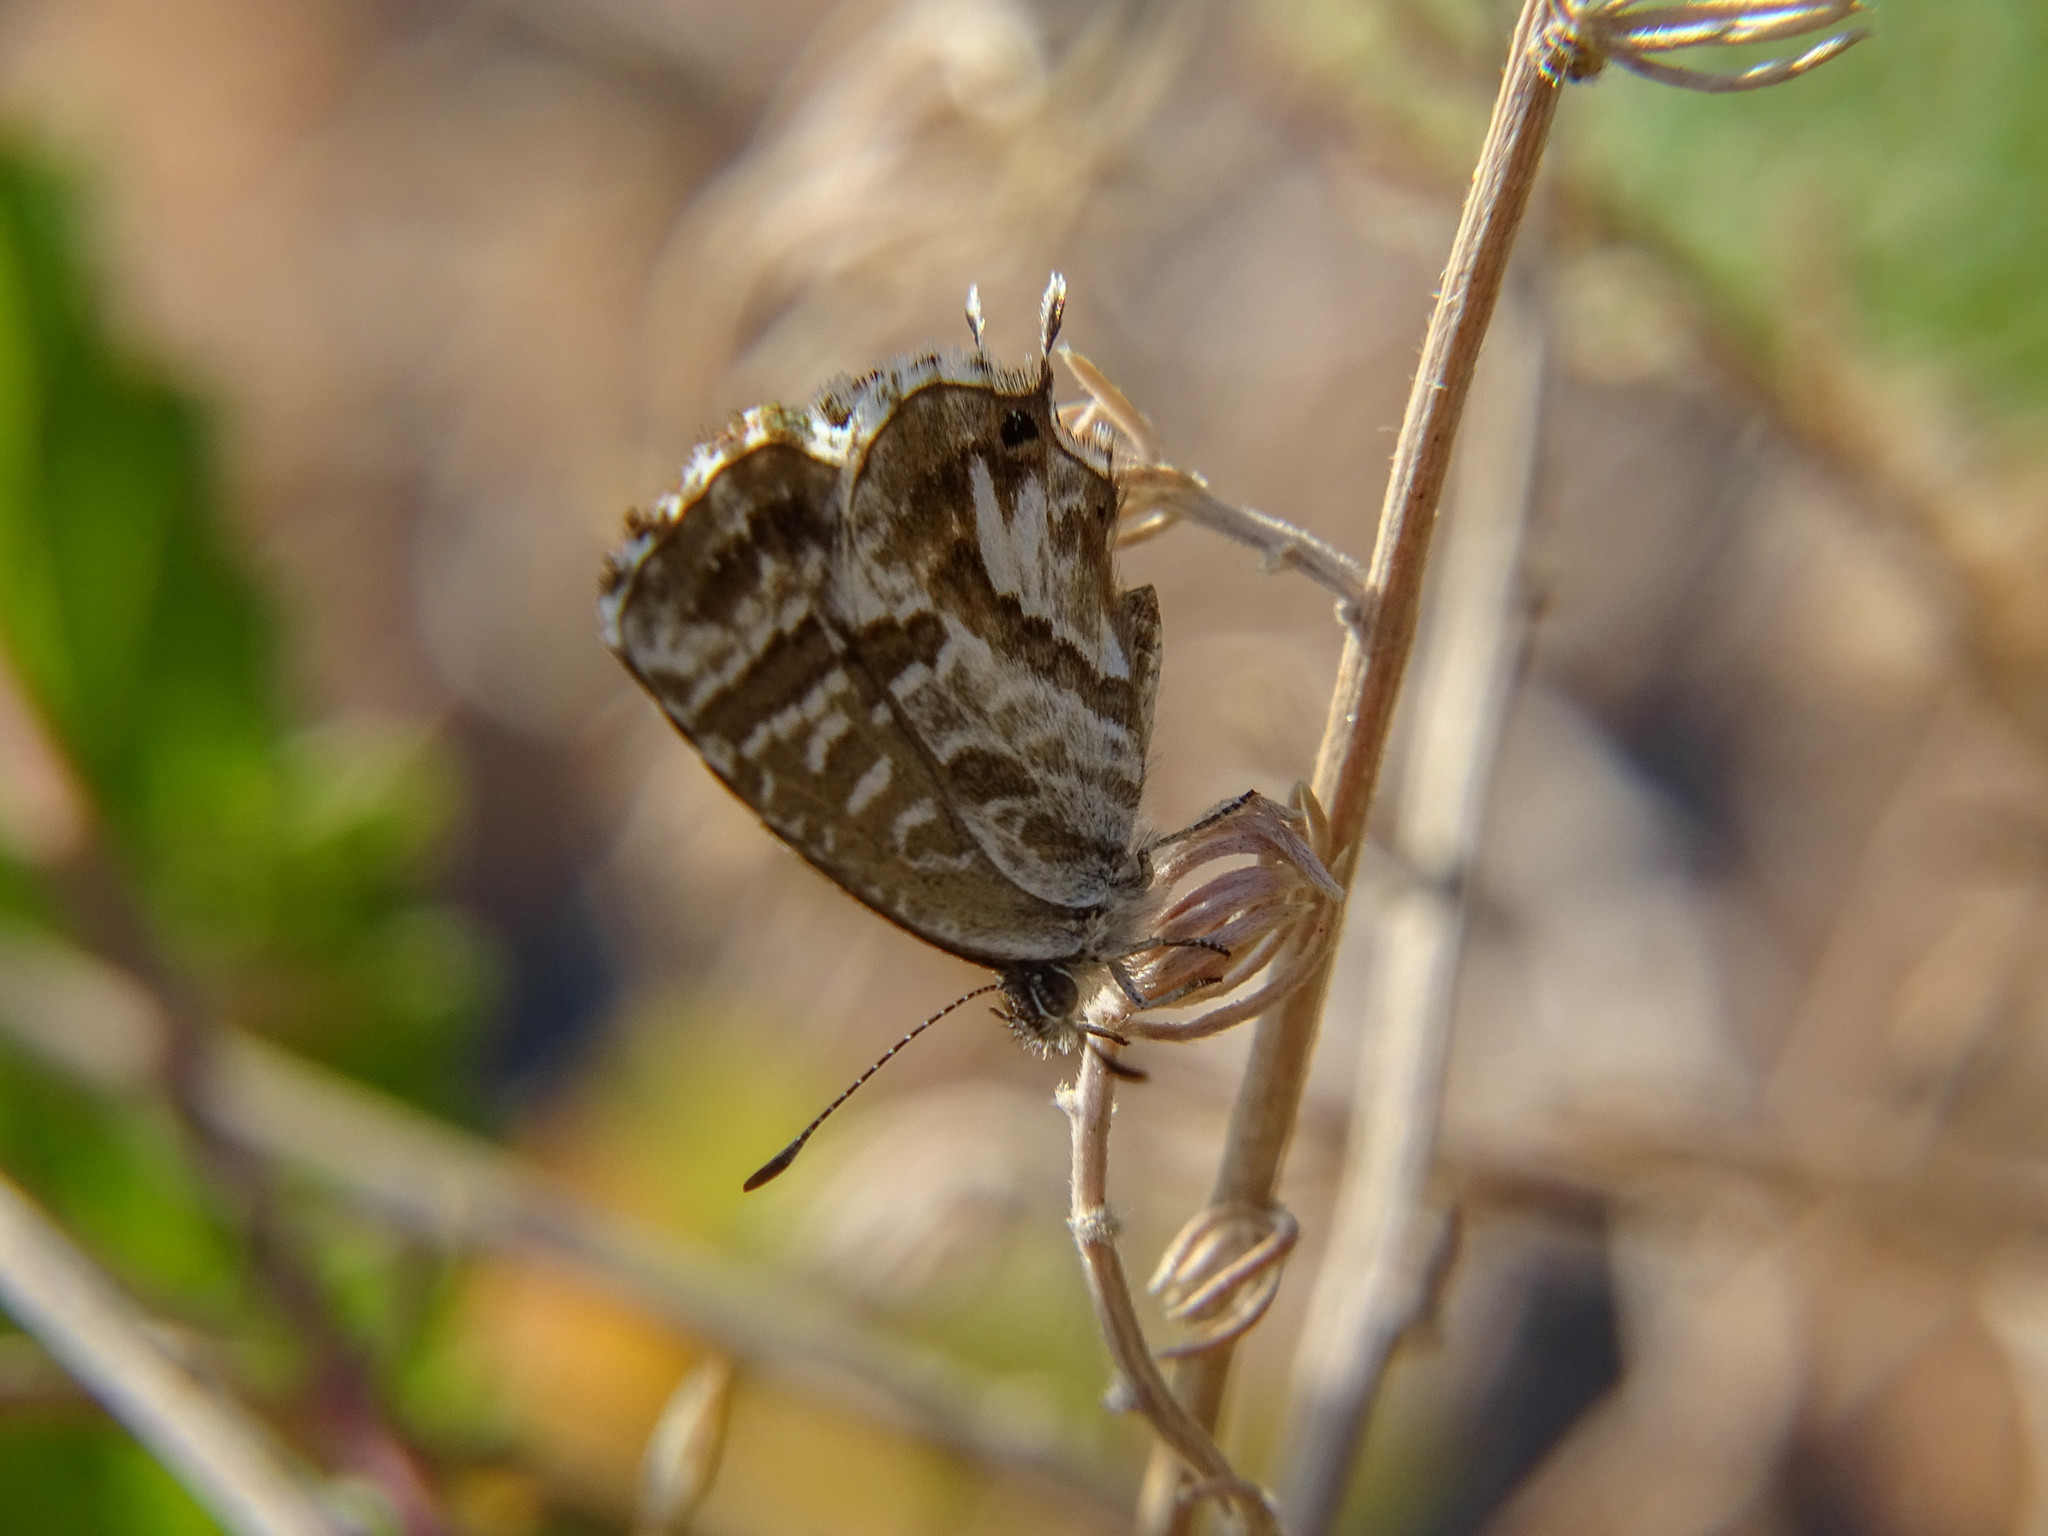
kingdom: Animalia
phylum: Arthropoda
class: Insecta
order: Lepidoptera
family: Lycaenidae
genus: Cacyreus
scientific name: Cacyreus marshalli
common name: Geranium bronze
